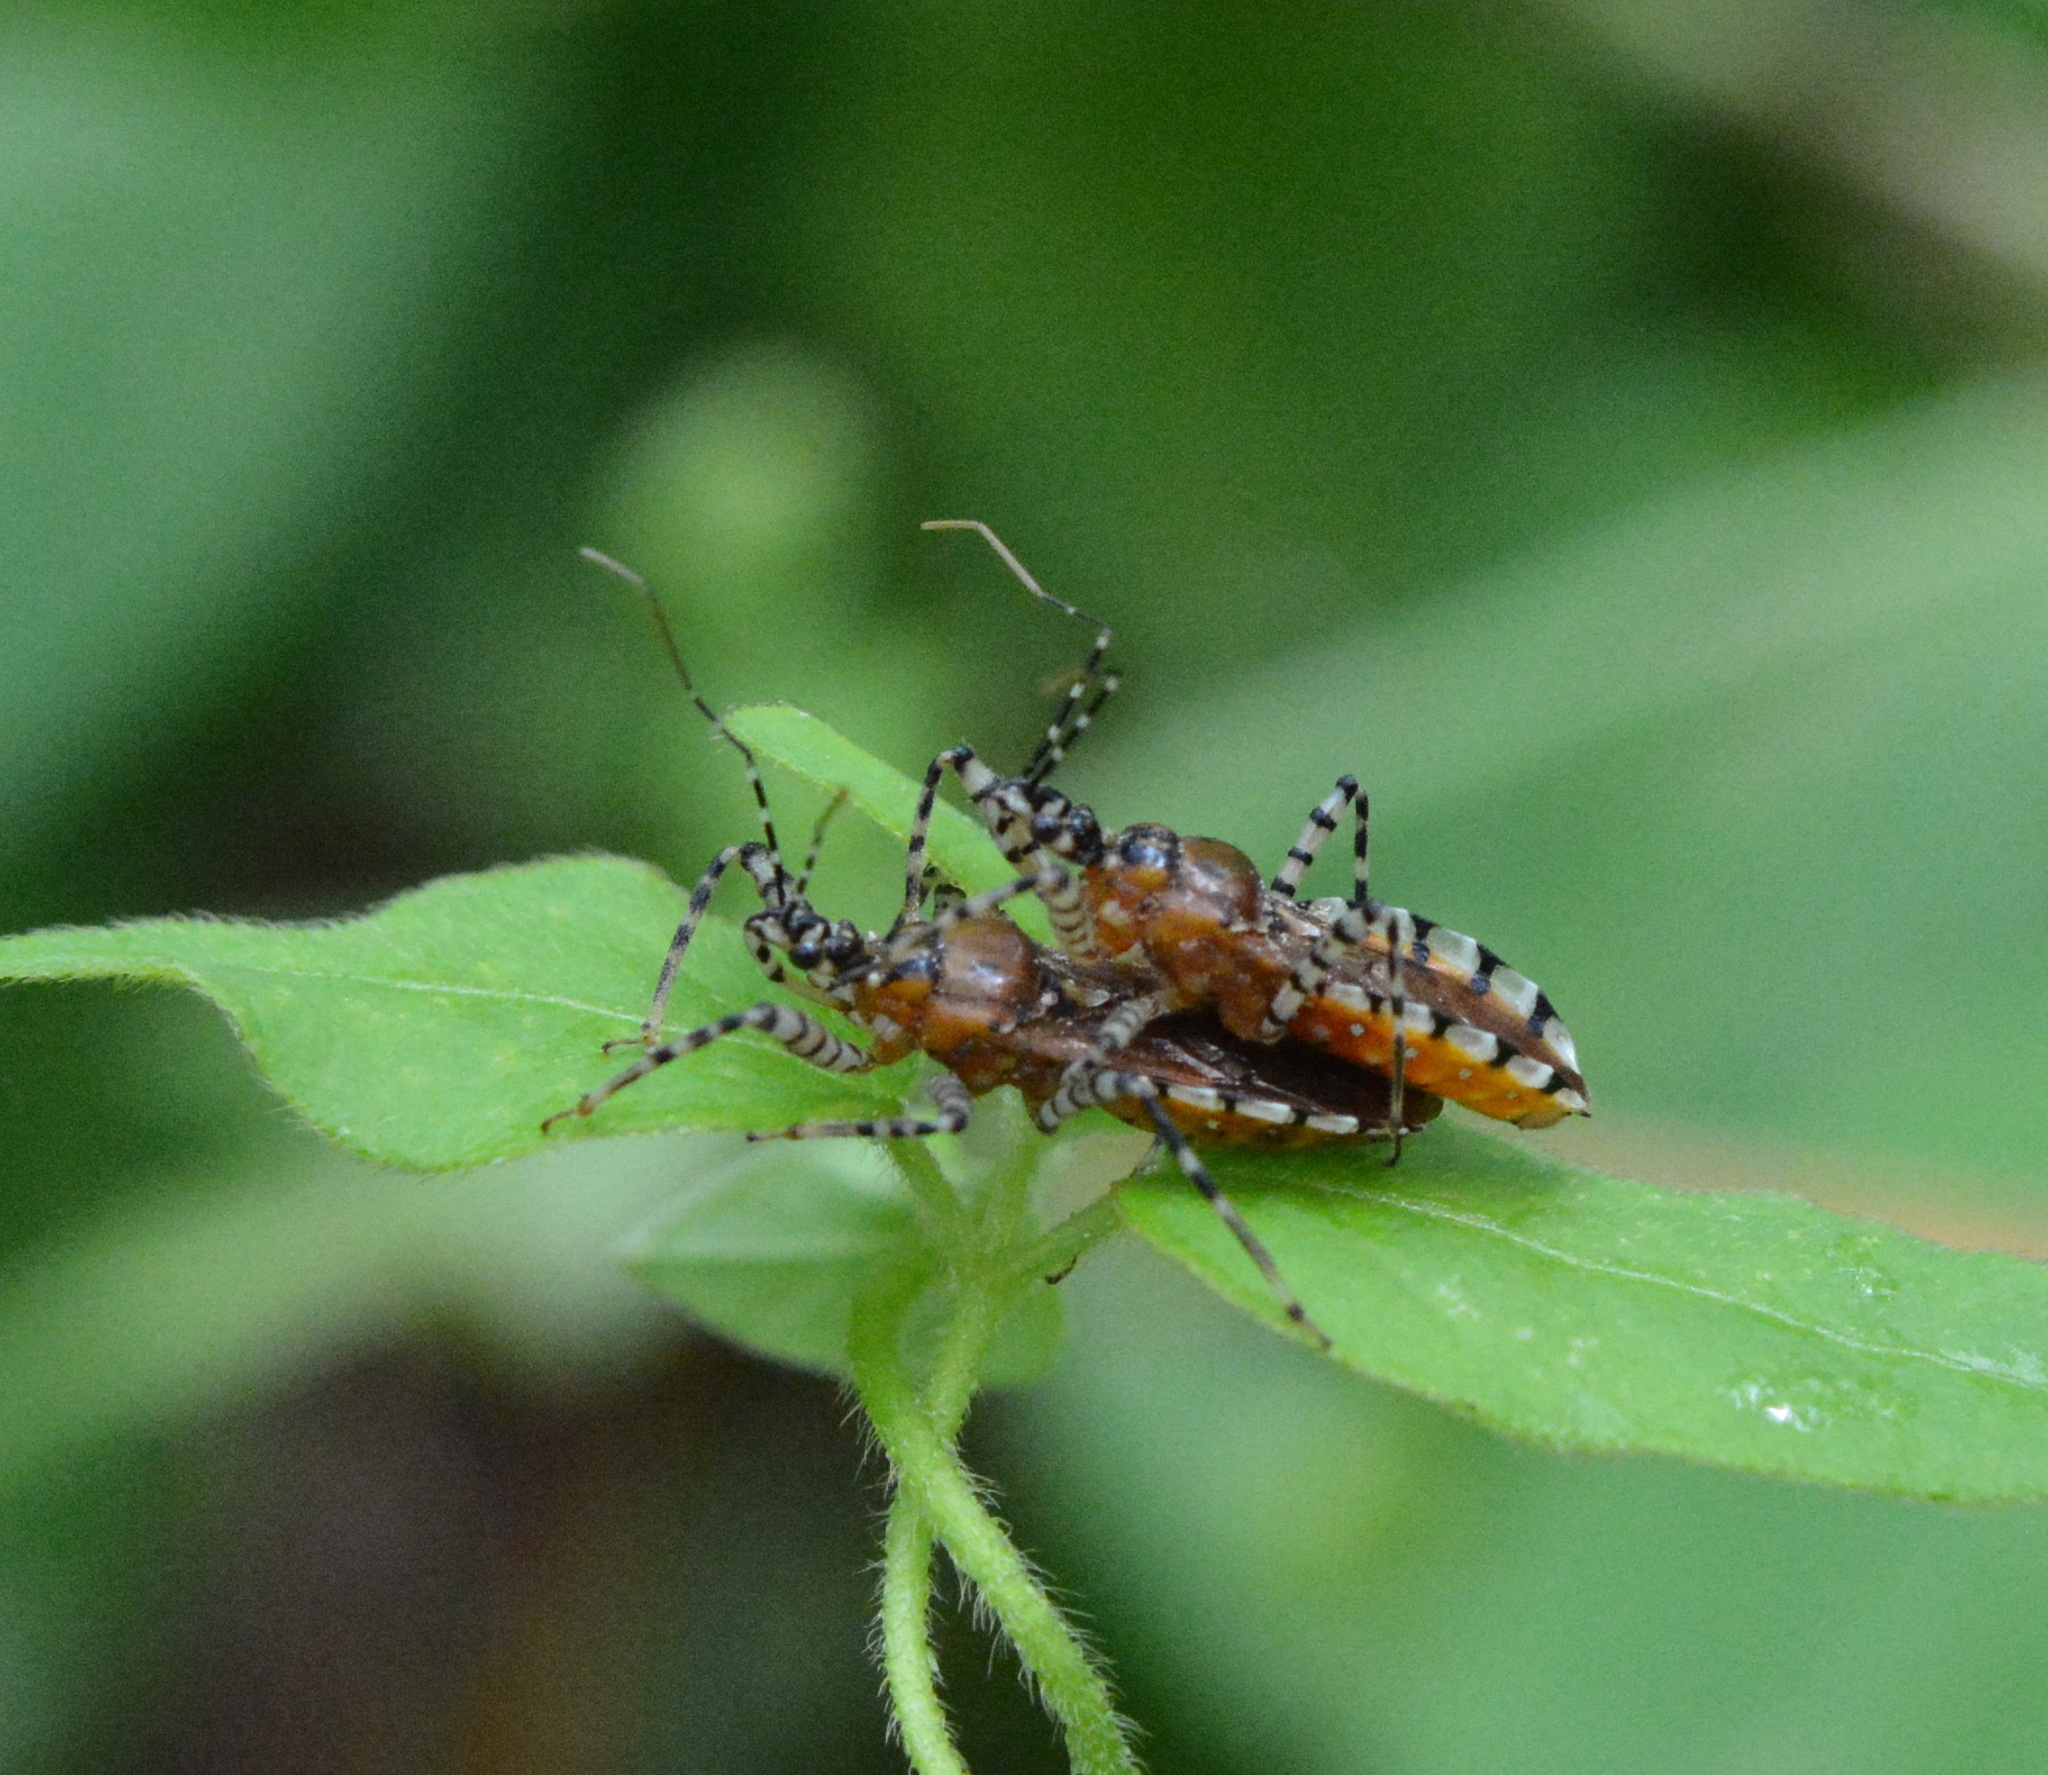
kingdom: Animalia
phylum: Arthropoda
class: Insecta
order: Hemiptera
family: Reduviidae
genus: Pselliopus
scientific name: Pselliopus cinctus
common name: Ringed assassin bug
